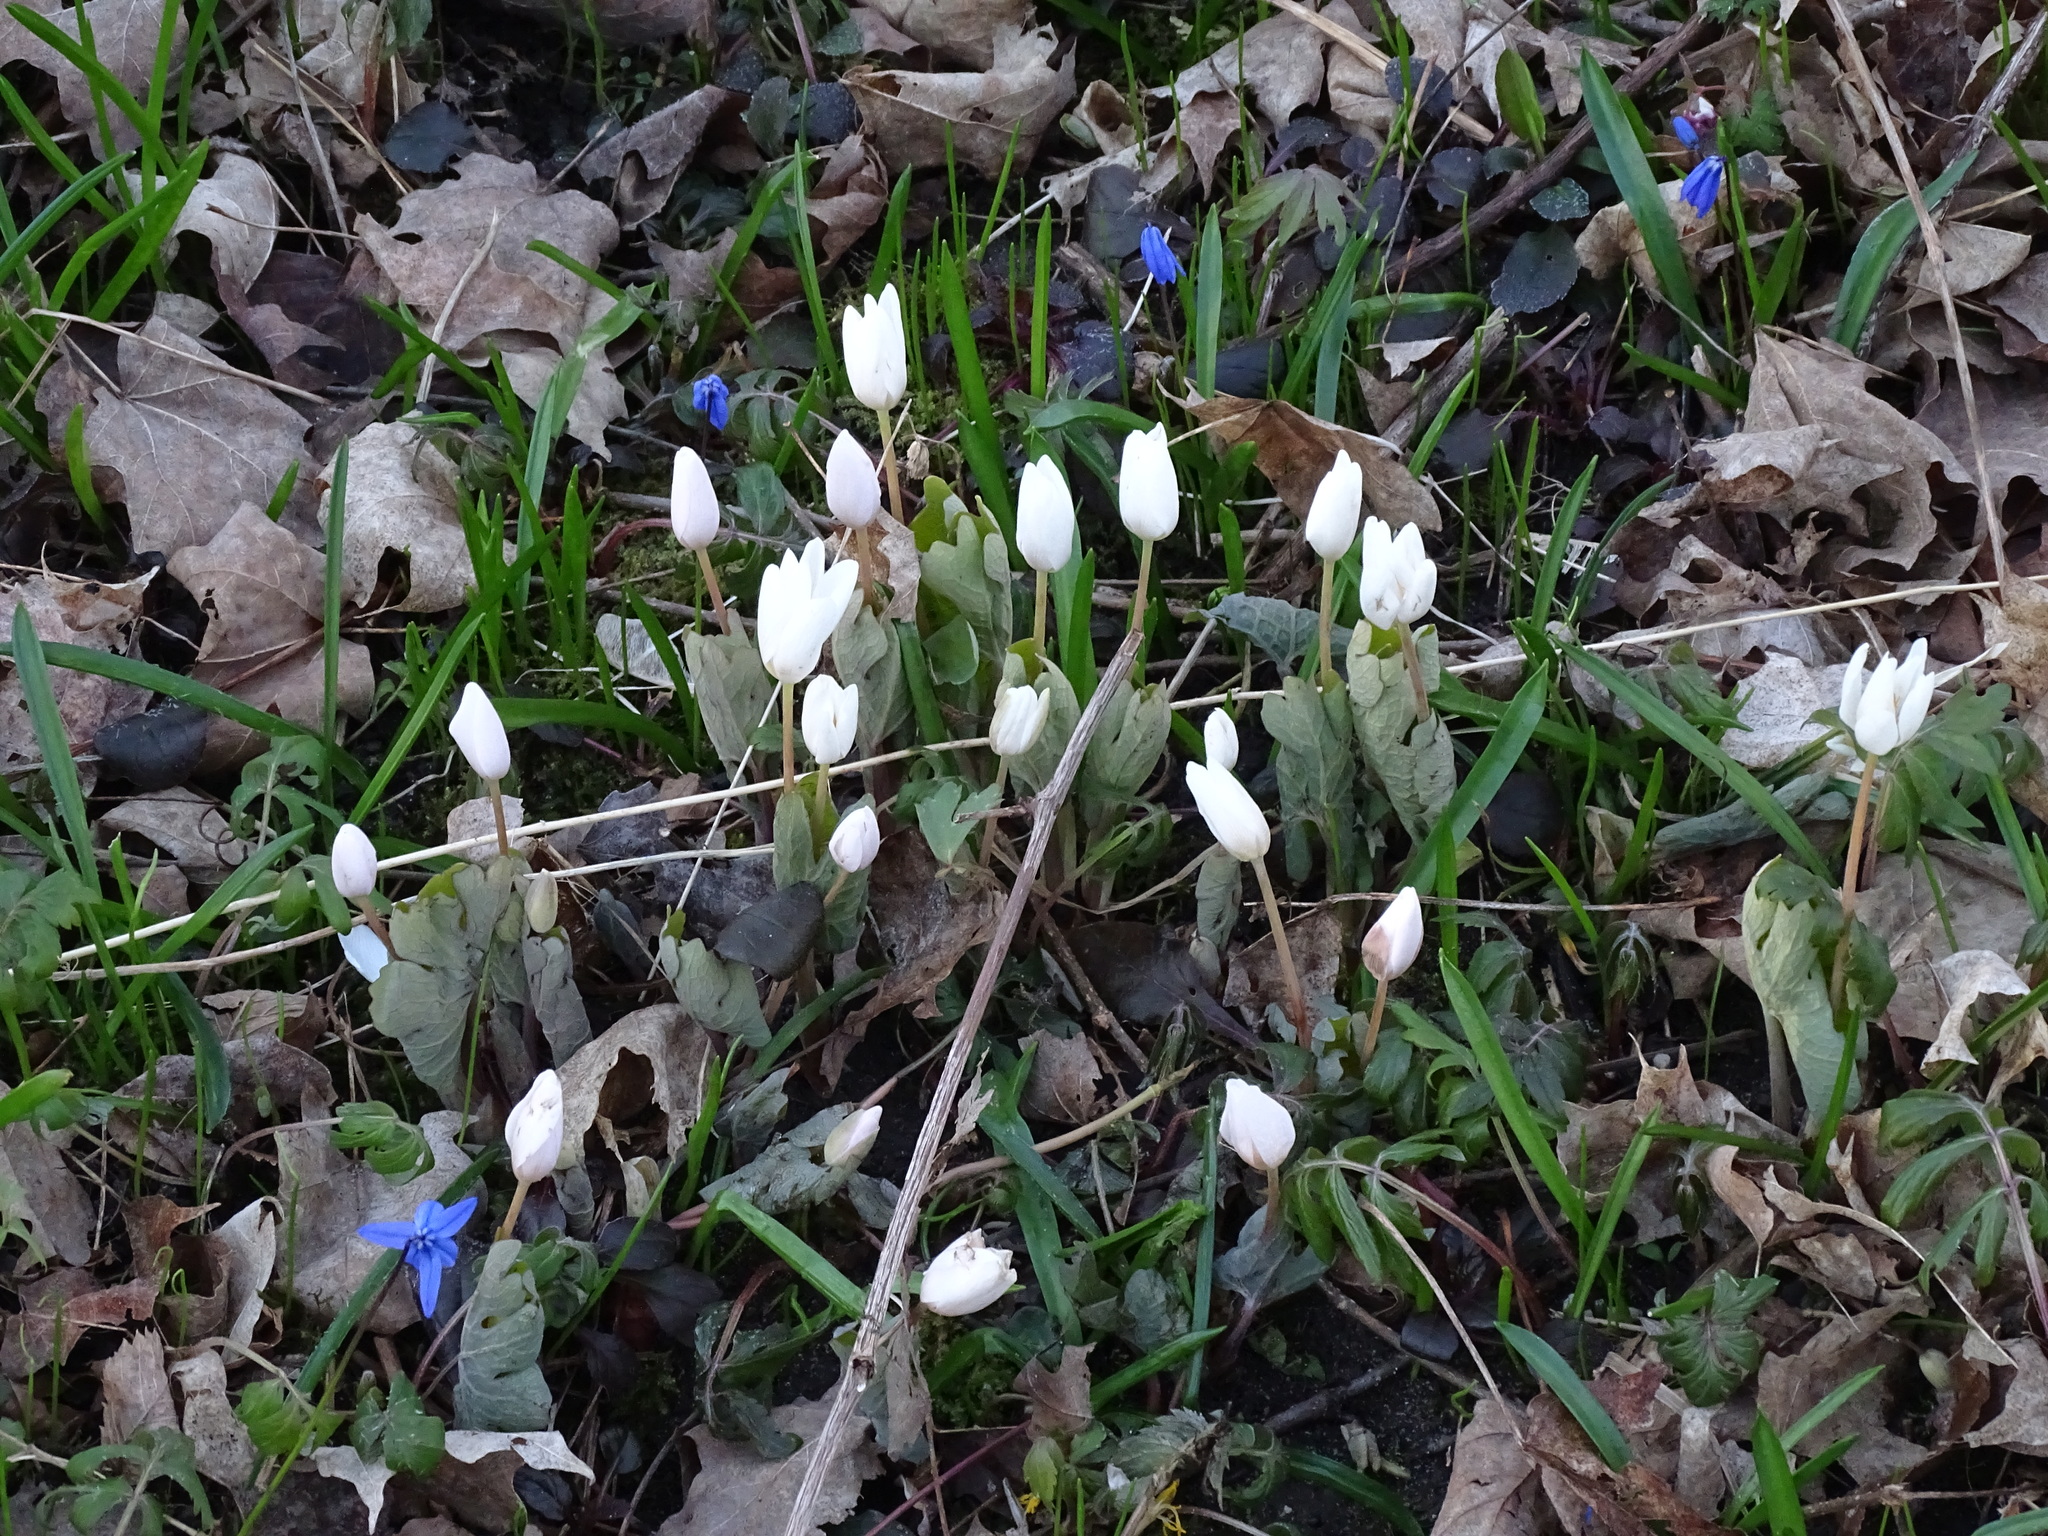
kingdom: Plantae
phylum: Tracheophyta
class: Magnoliopsida
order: Ranunculales
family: Papaveraceae
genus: Sanguinaria
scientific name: Sanguinaria canadensis
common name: Bloodroot
